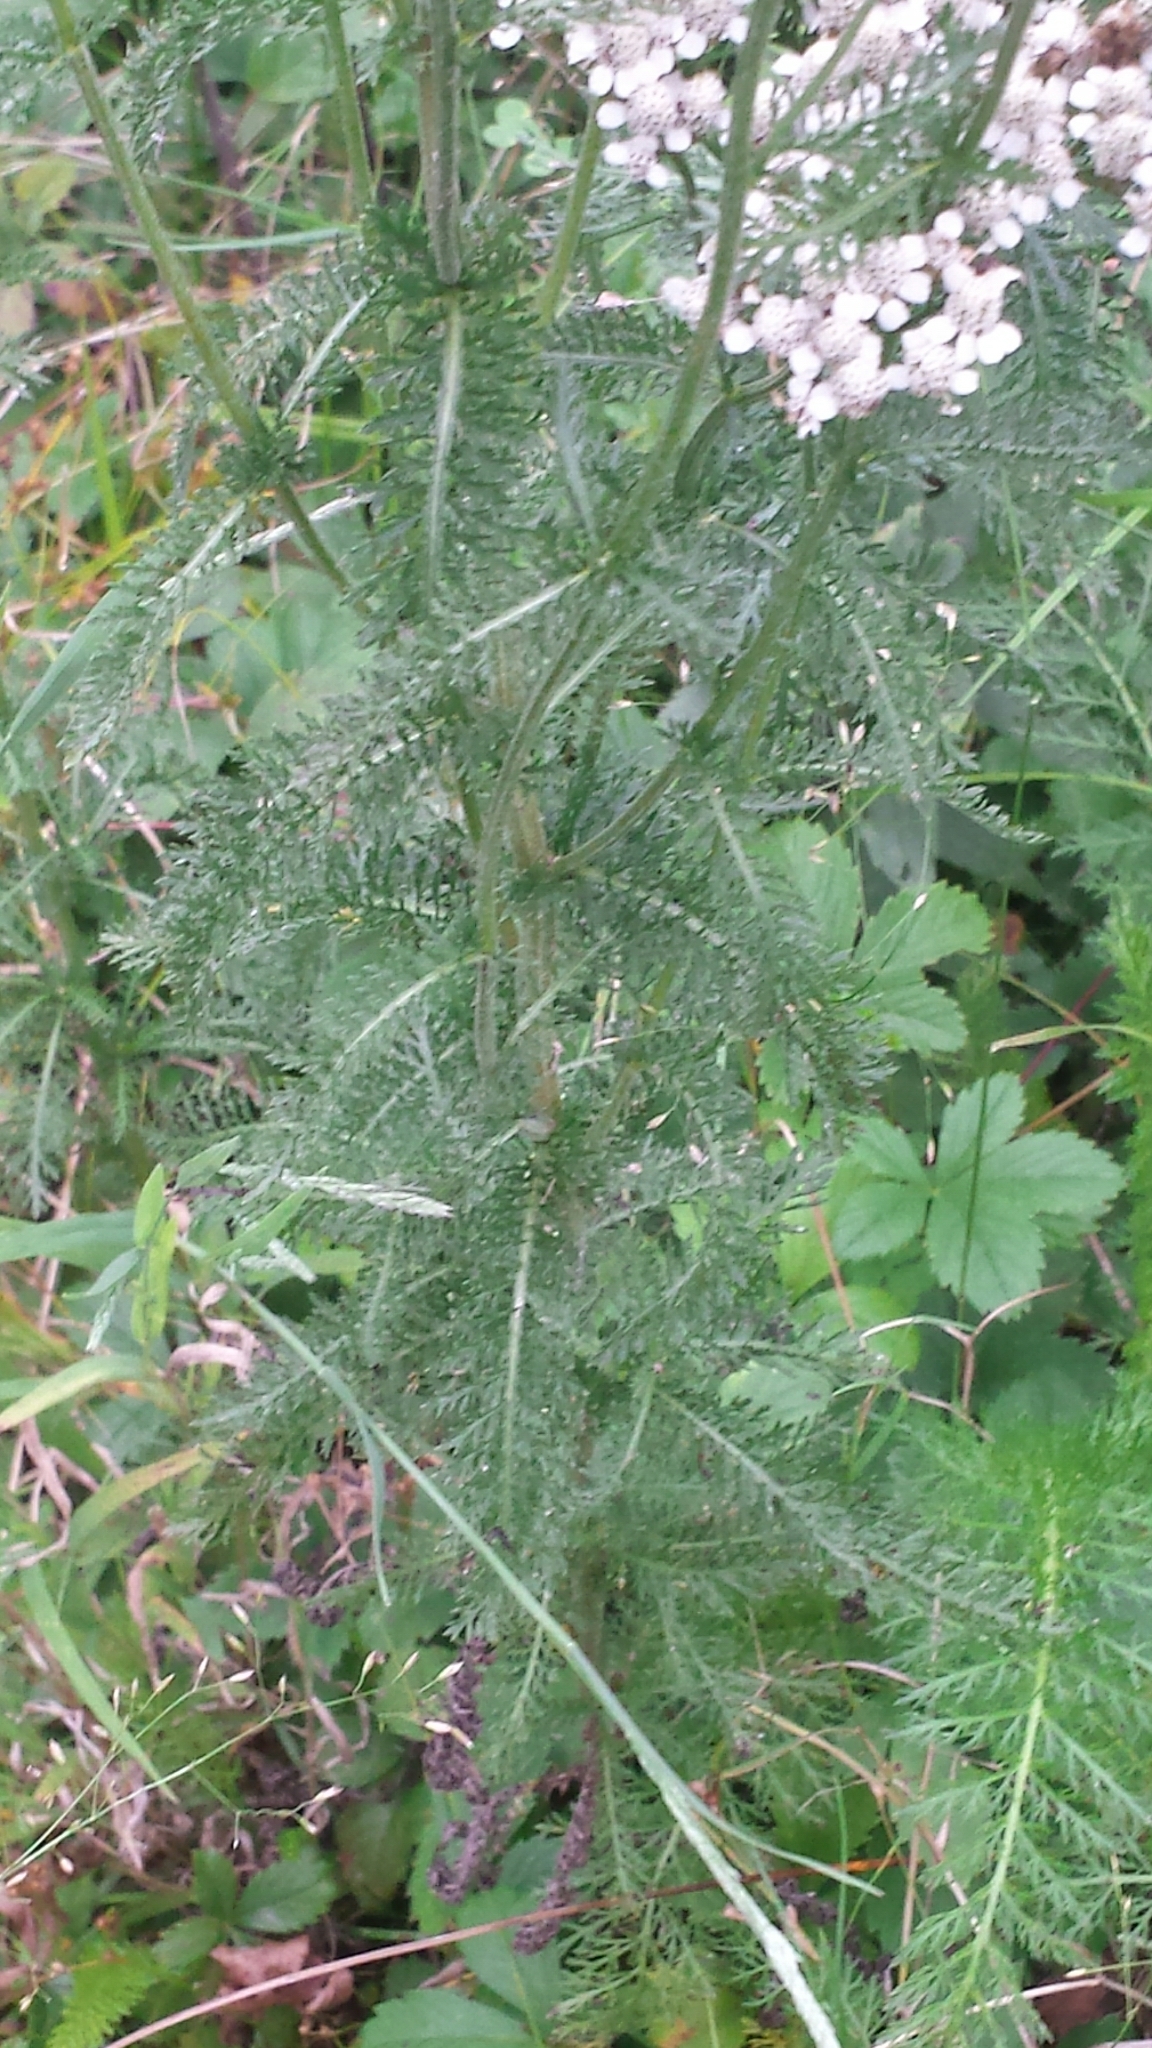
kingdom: Plantae
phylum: Tracheophyta
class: Magnoliopsida
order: Asterales
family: Asteraceae
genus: Achillea
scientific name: Achillea millefolium
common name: Yarrow
